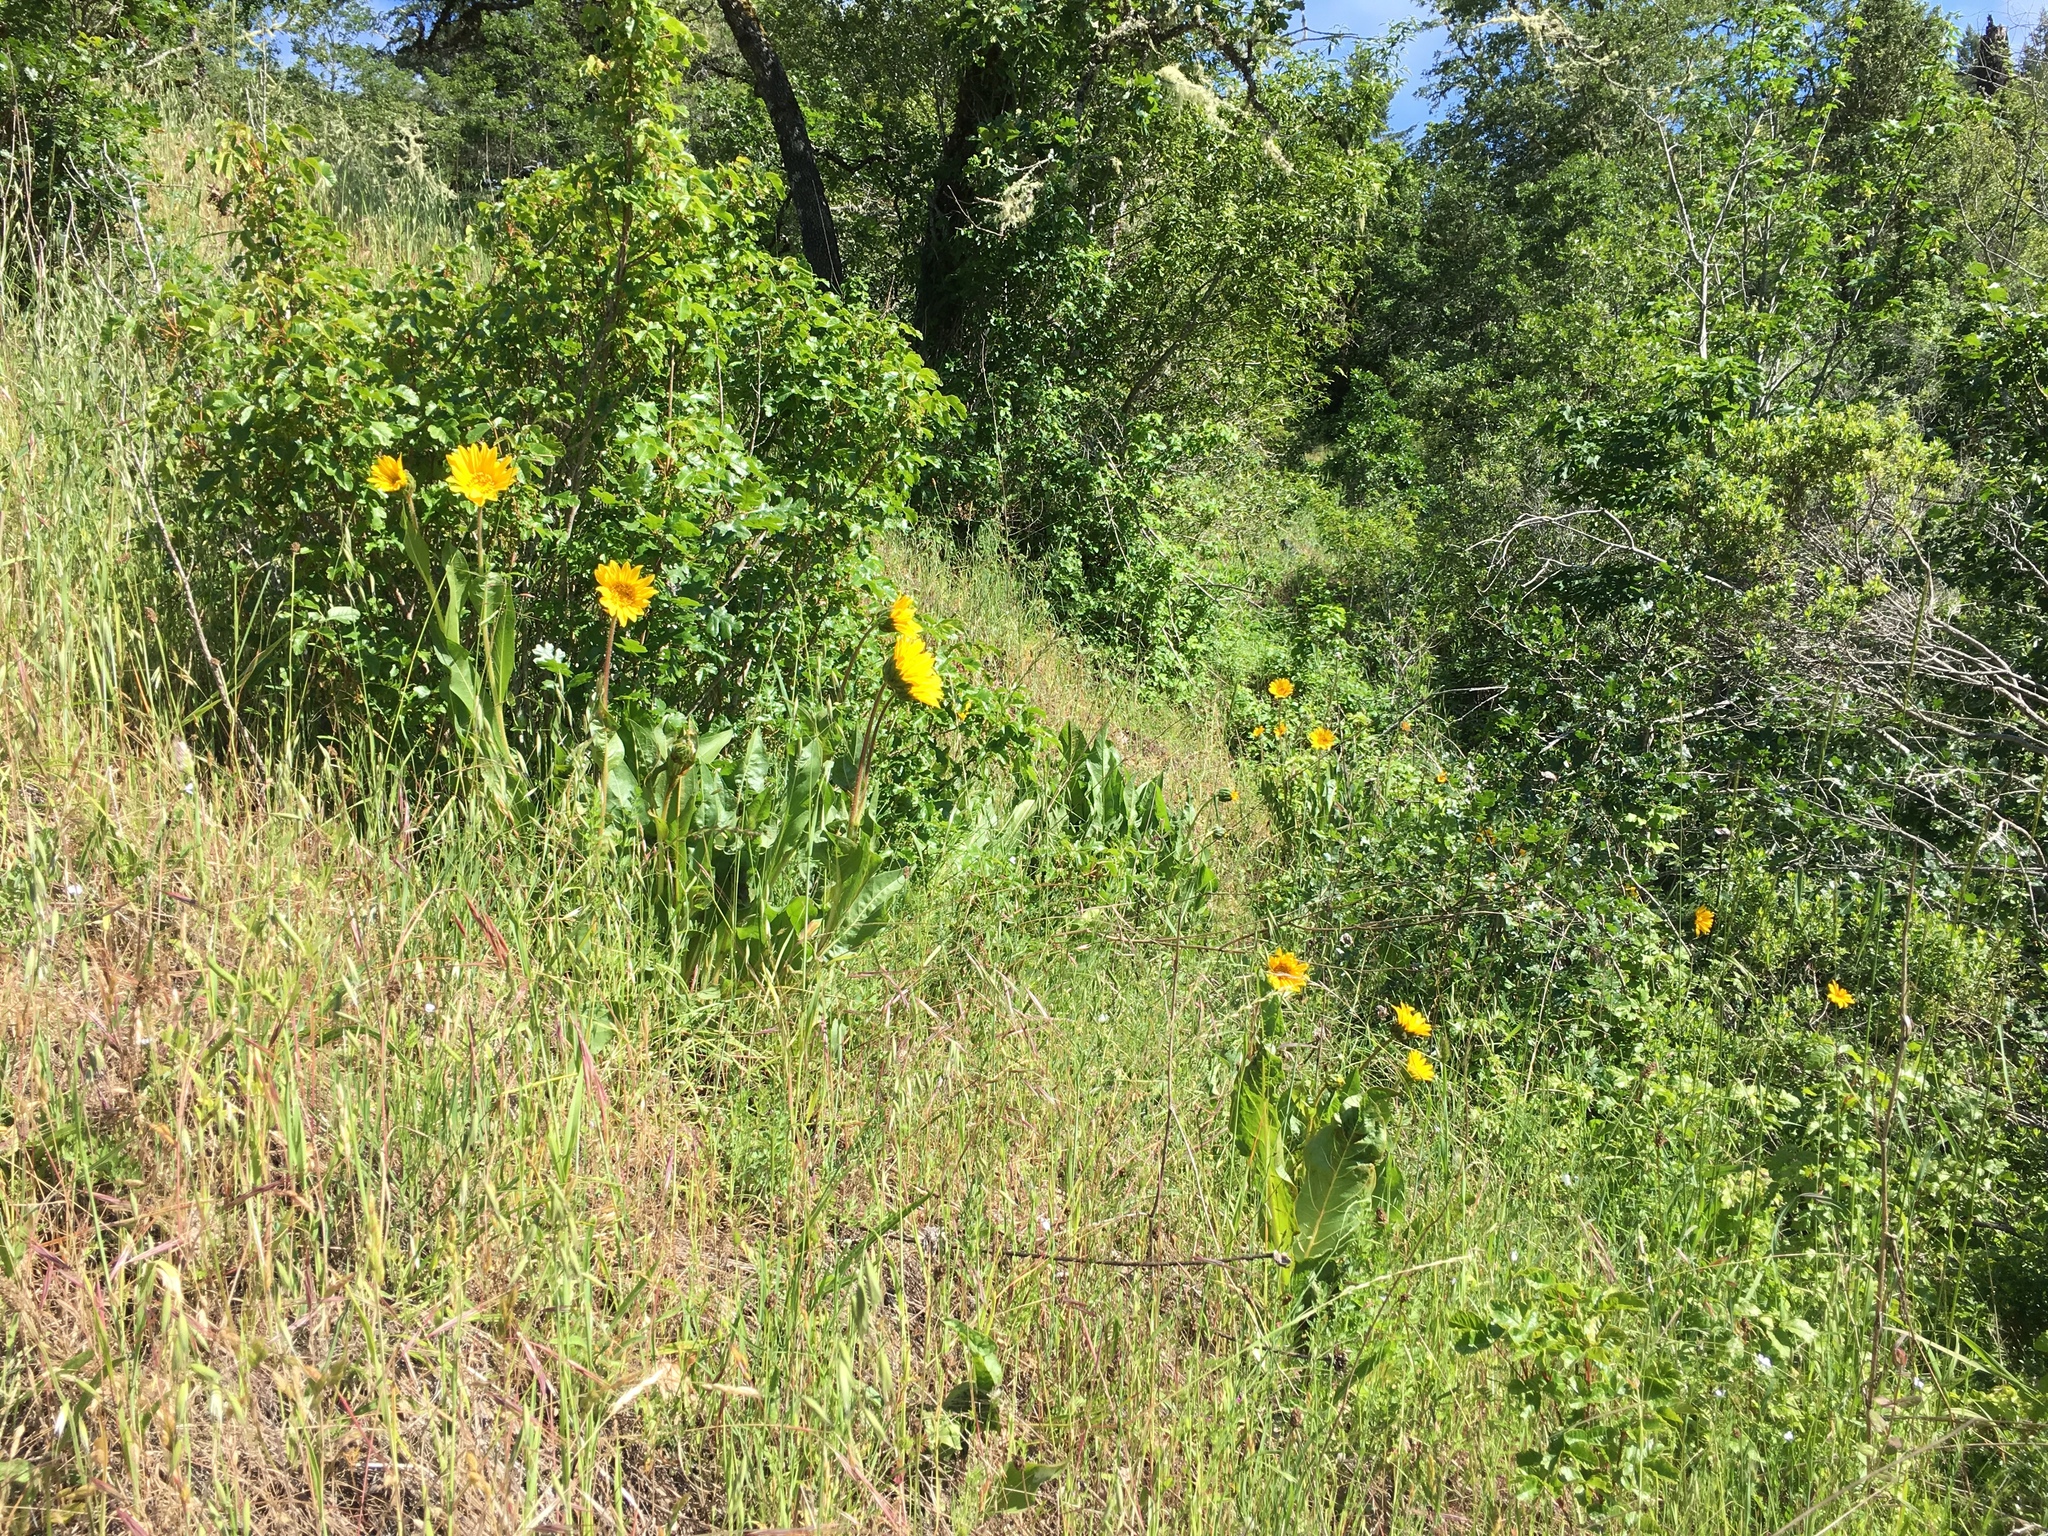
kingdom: Plantae
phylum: Tracheophyta
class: Magnoliopsida
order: Asterales
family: Asteraceae
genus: Wyethia
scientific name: Wyethia angustifolia
